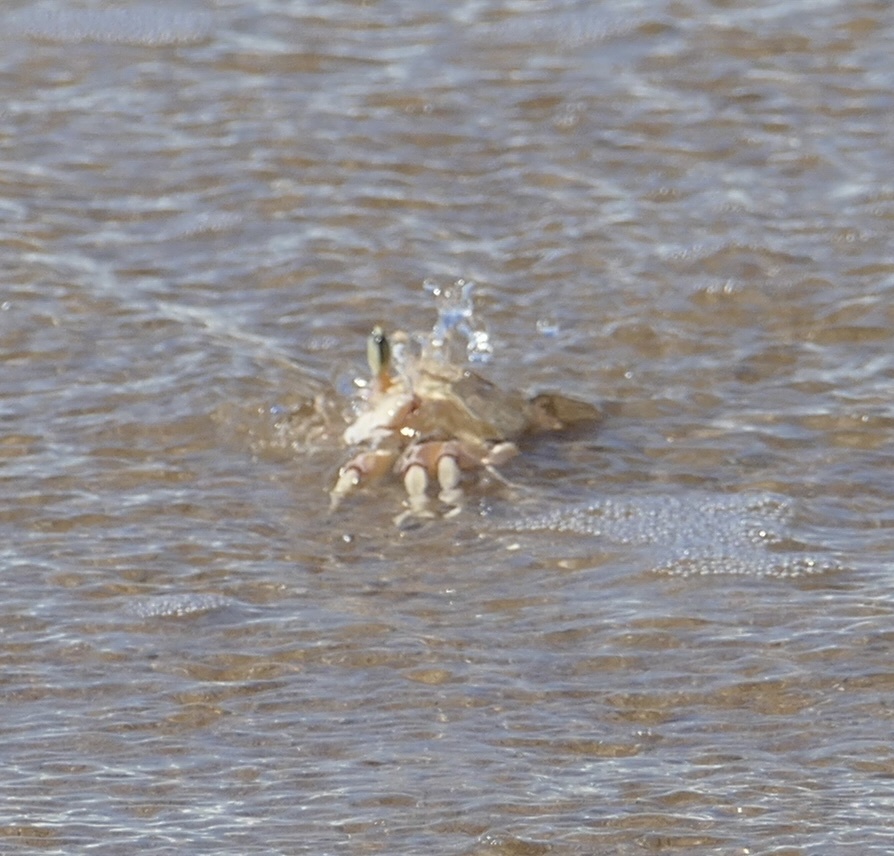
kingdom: Animalia
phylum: Arthropoda
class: Malacostraca
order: Decapoda
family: Ocypodidae
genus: Ocypode
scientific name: Ocypode ryderi
